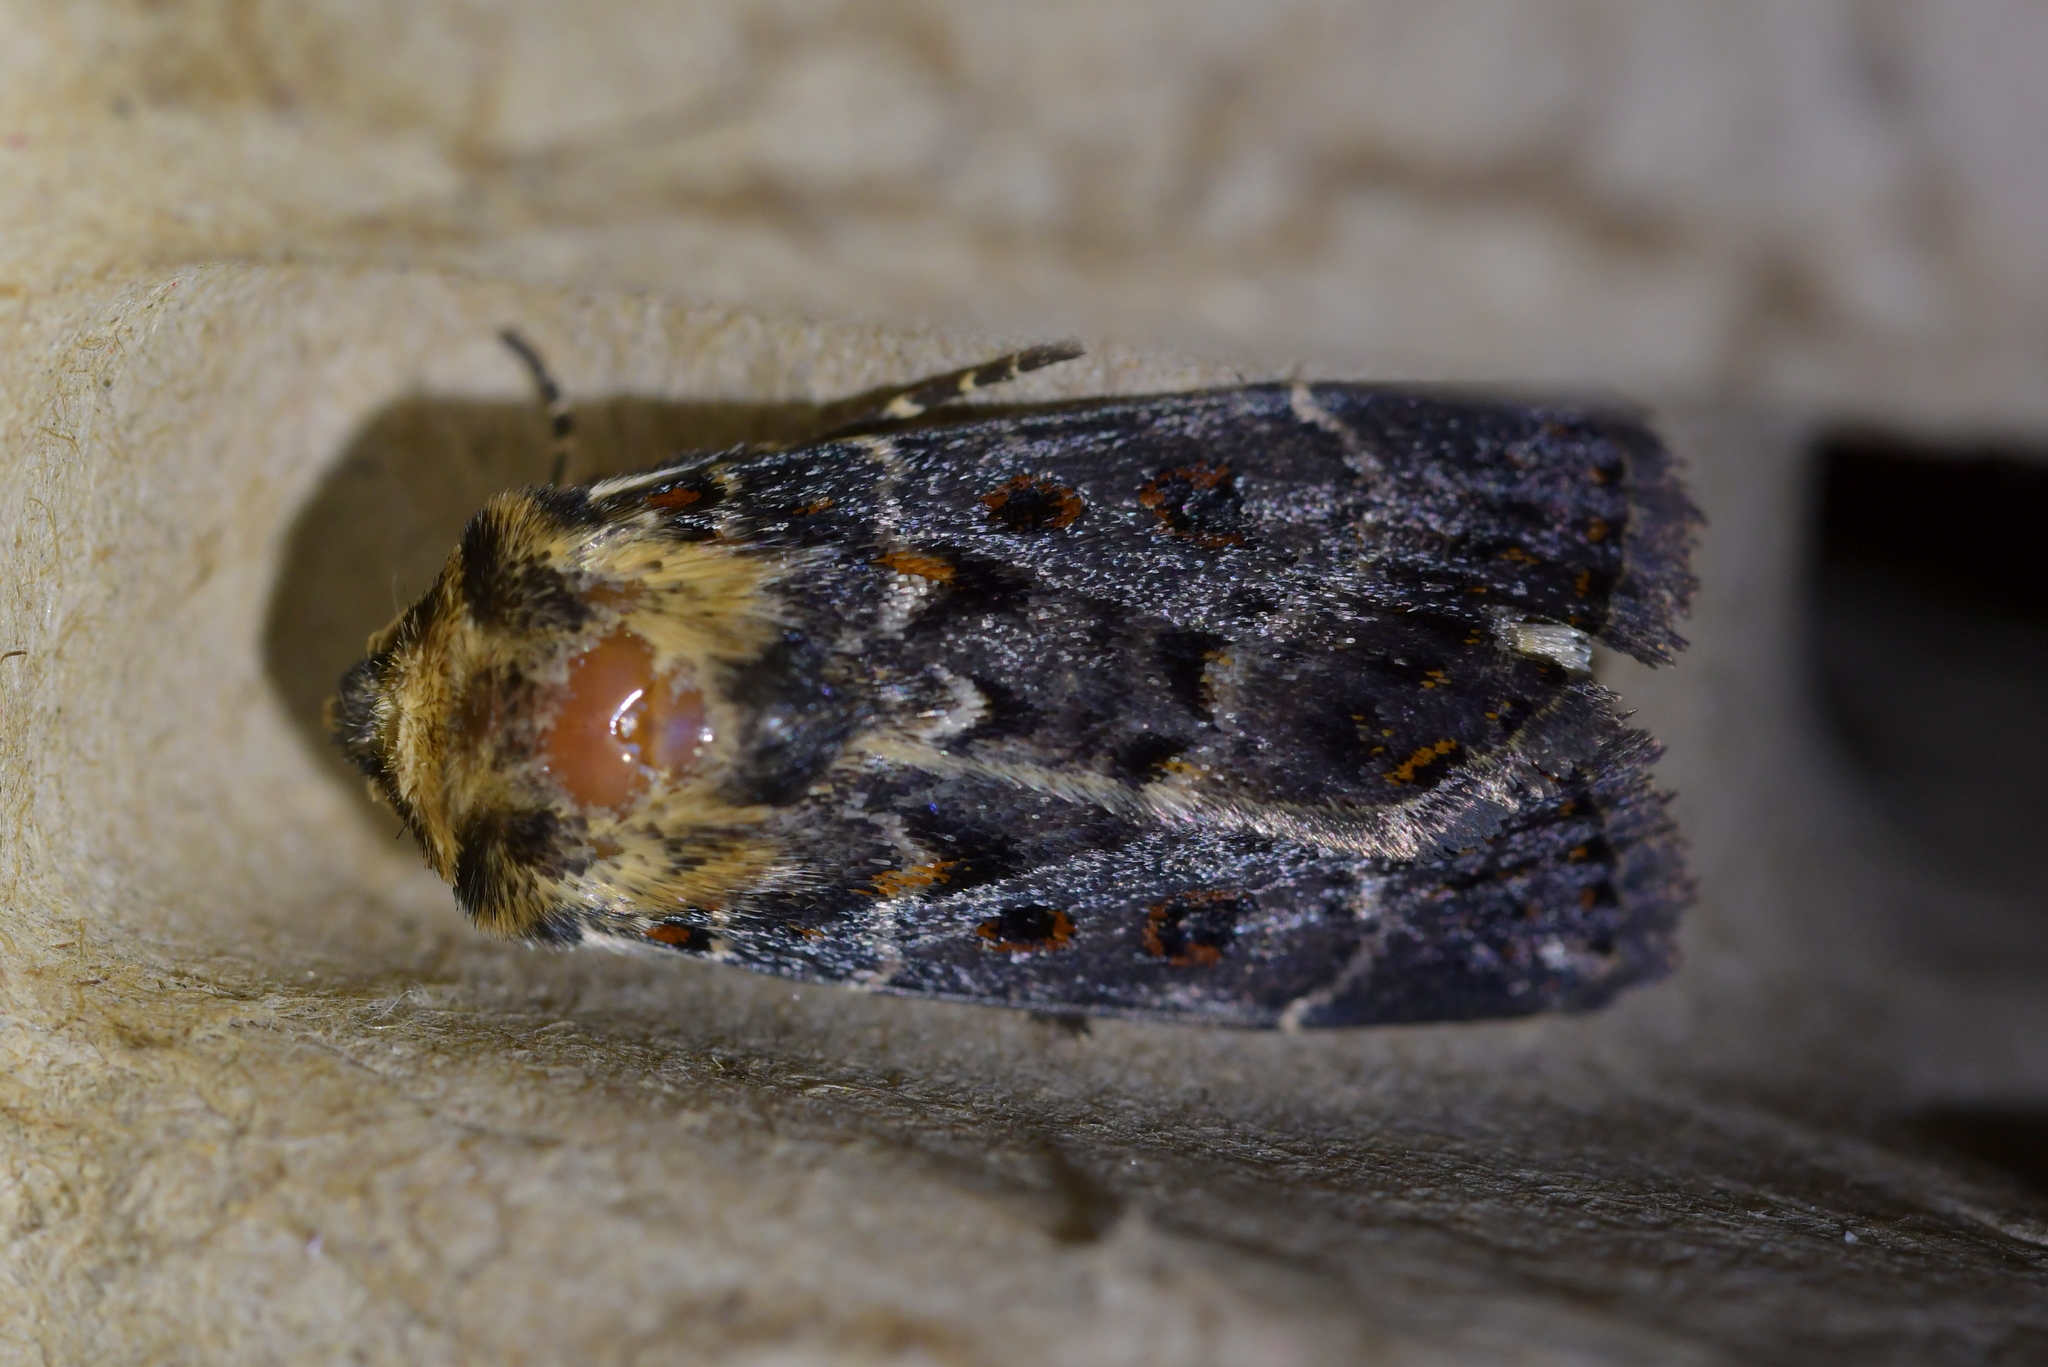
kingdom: Animalia
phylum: Arthropoda
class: Insecta
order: Lepidoptera
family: Noctuidae
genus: Proteuxoa
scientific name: Proteuxoa sanguinipuncta
